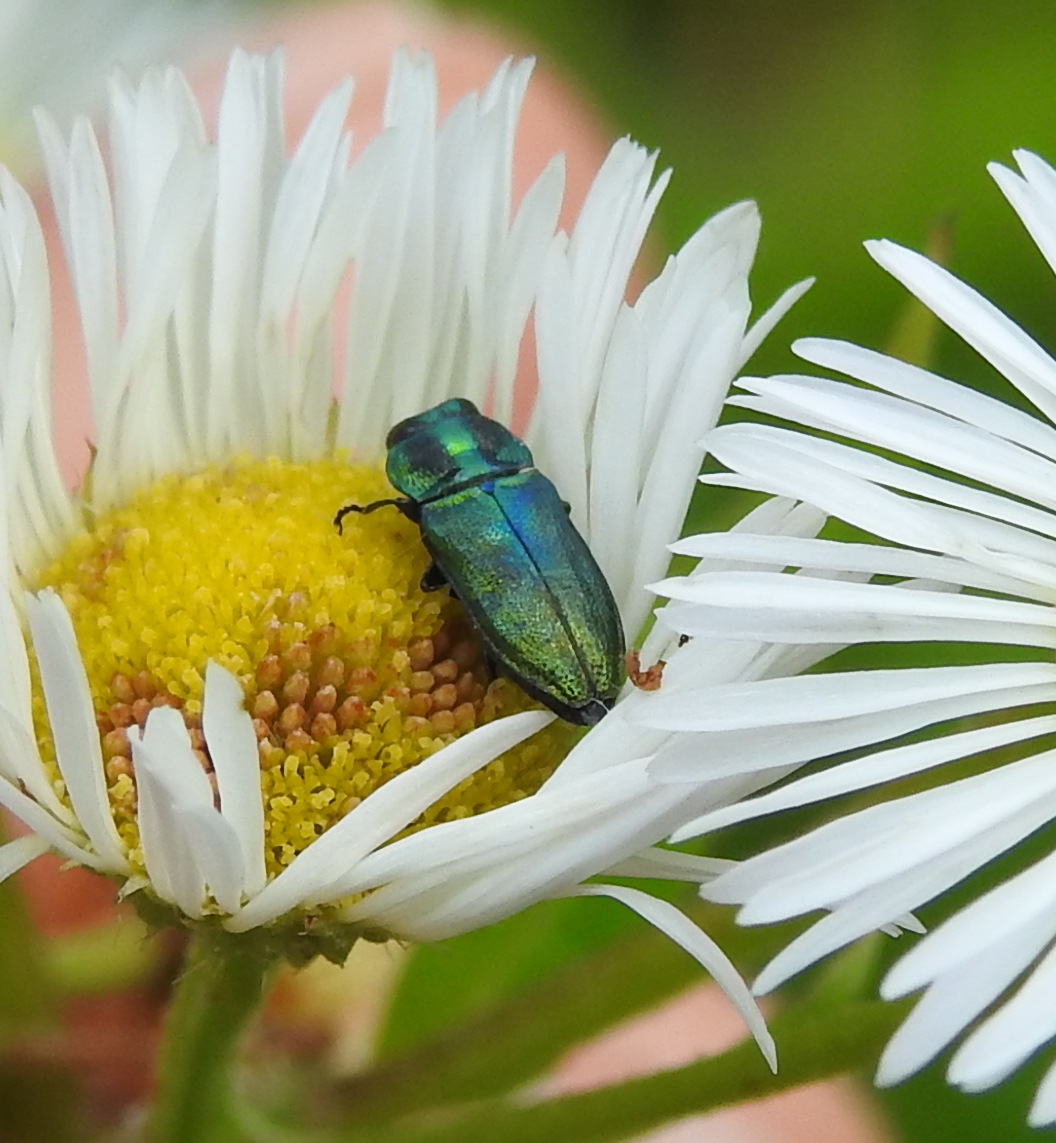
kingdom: Animalia
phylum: Arthropoda
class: Insecta
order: Coleoptera
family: Buprestidae
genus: Anthaxia
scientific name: Anthaxia thalassophila
